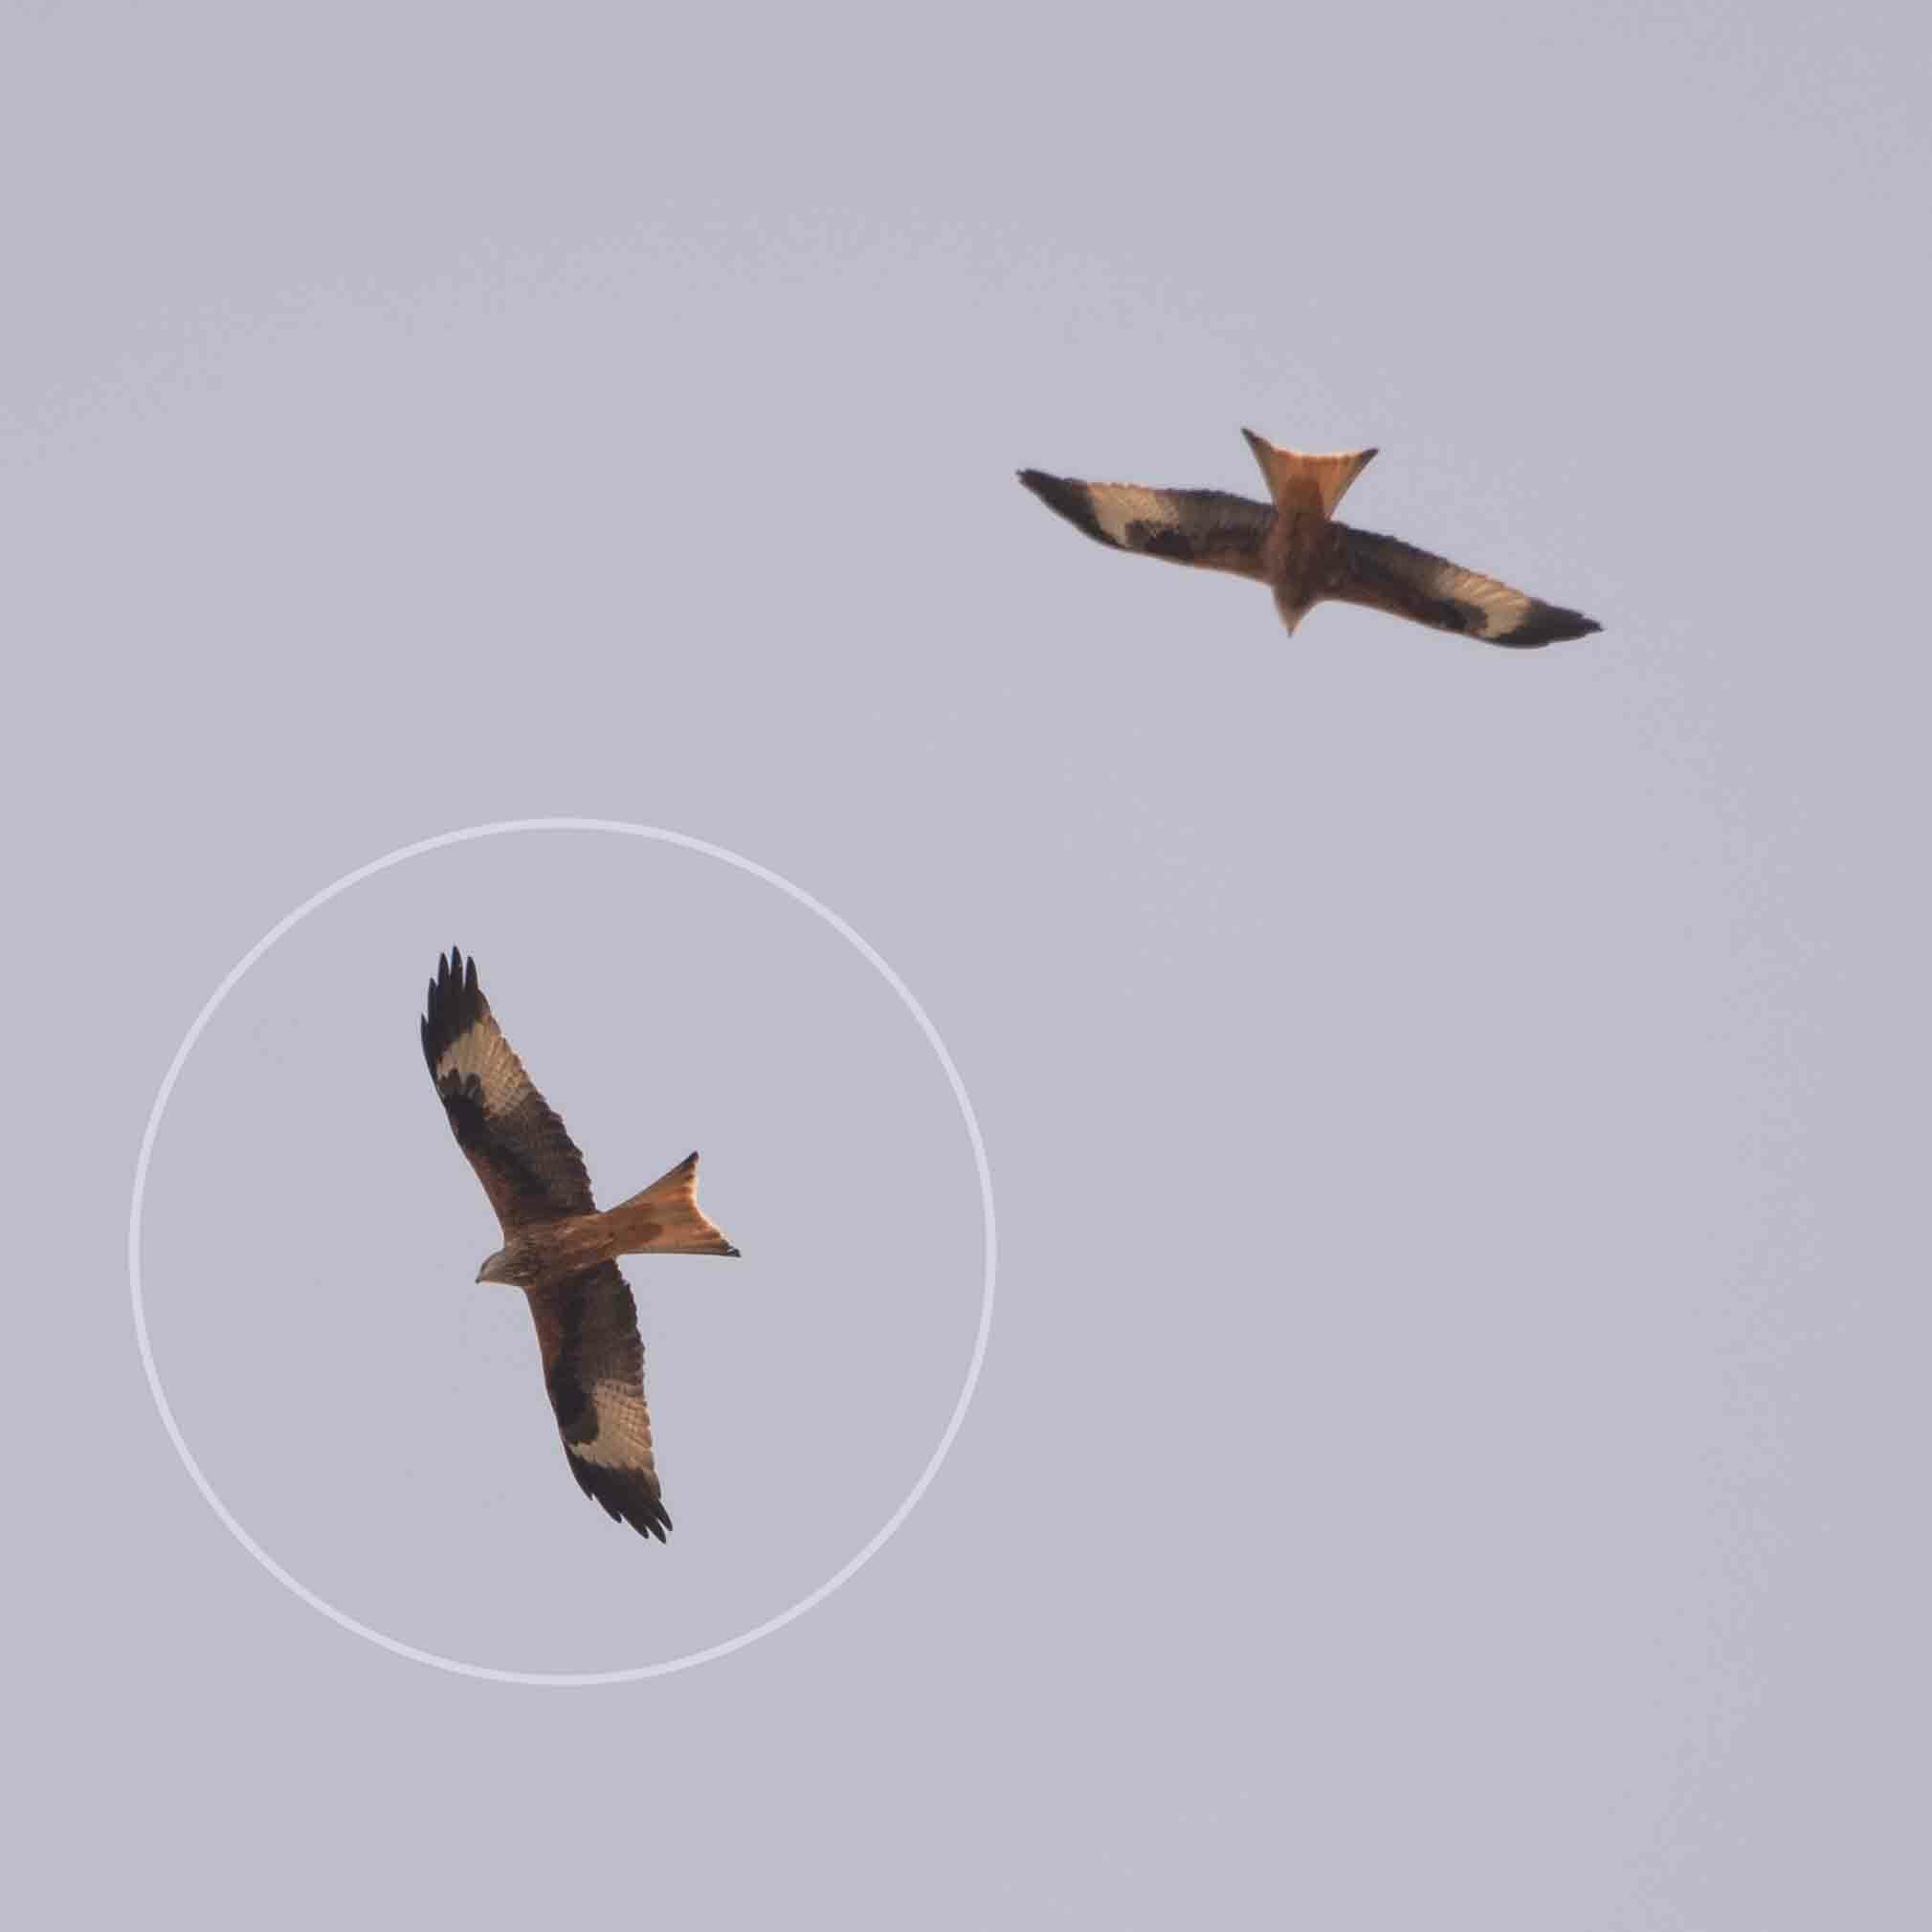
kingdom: Animalia
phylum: Chordata
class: Aves
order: Accipitriformes
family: Accipitridae
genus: Milvus
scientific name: Milvus milvus
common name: Red kite
